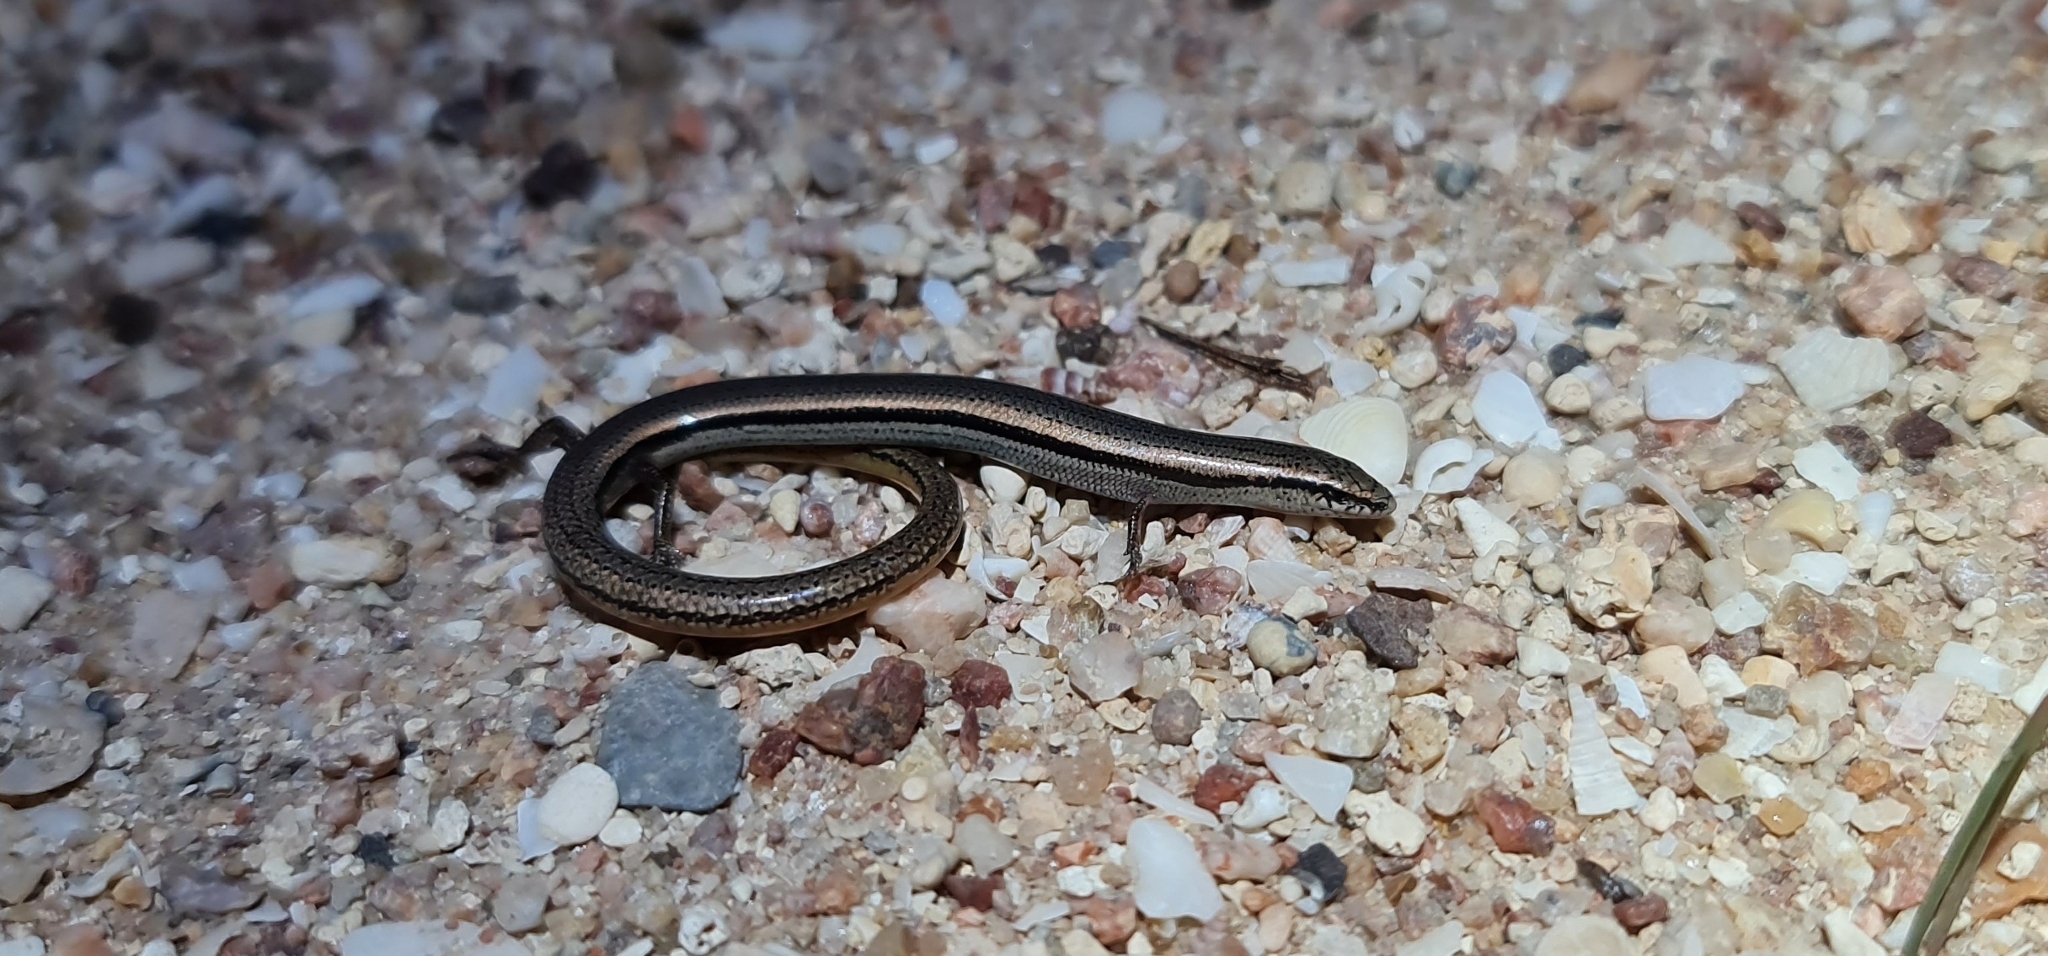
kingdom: Animalia
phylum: Chordata
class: Squamata
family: Scincidae
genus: Lerista
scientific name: Lerista dorsalis
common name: Southern slider
